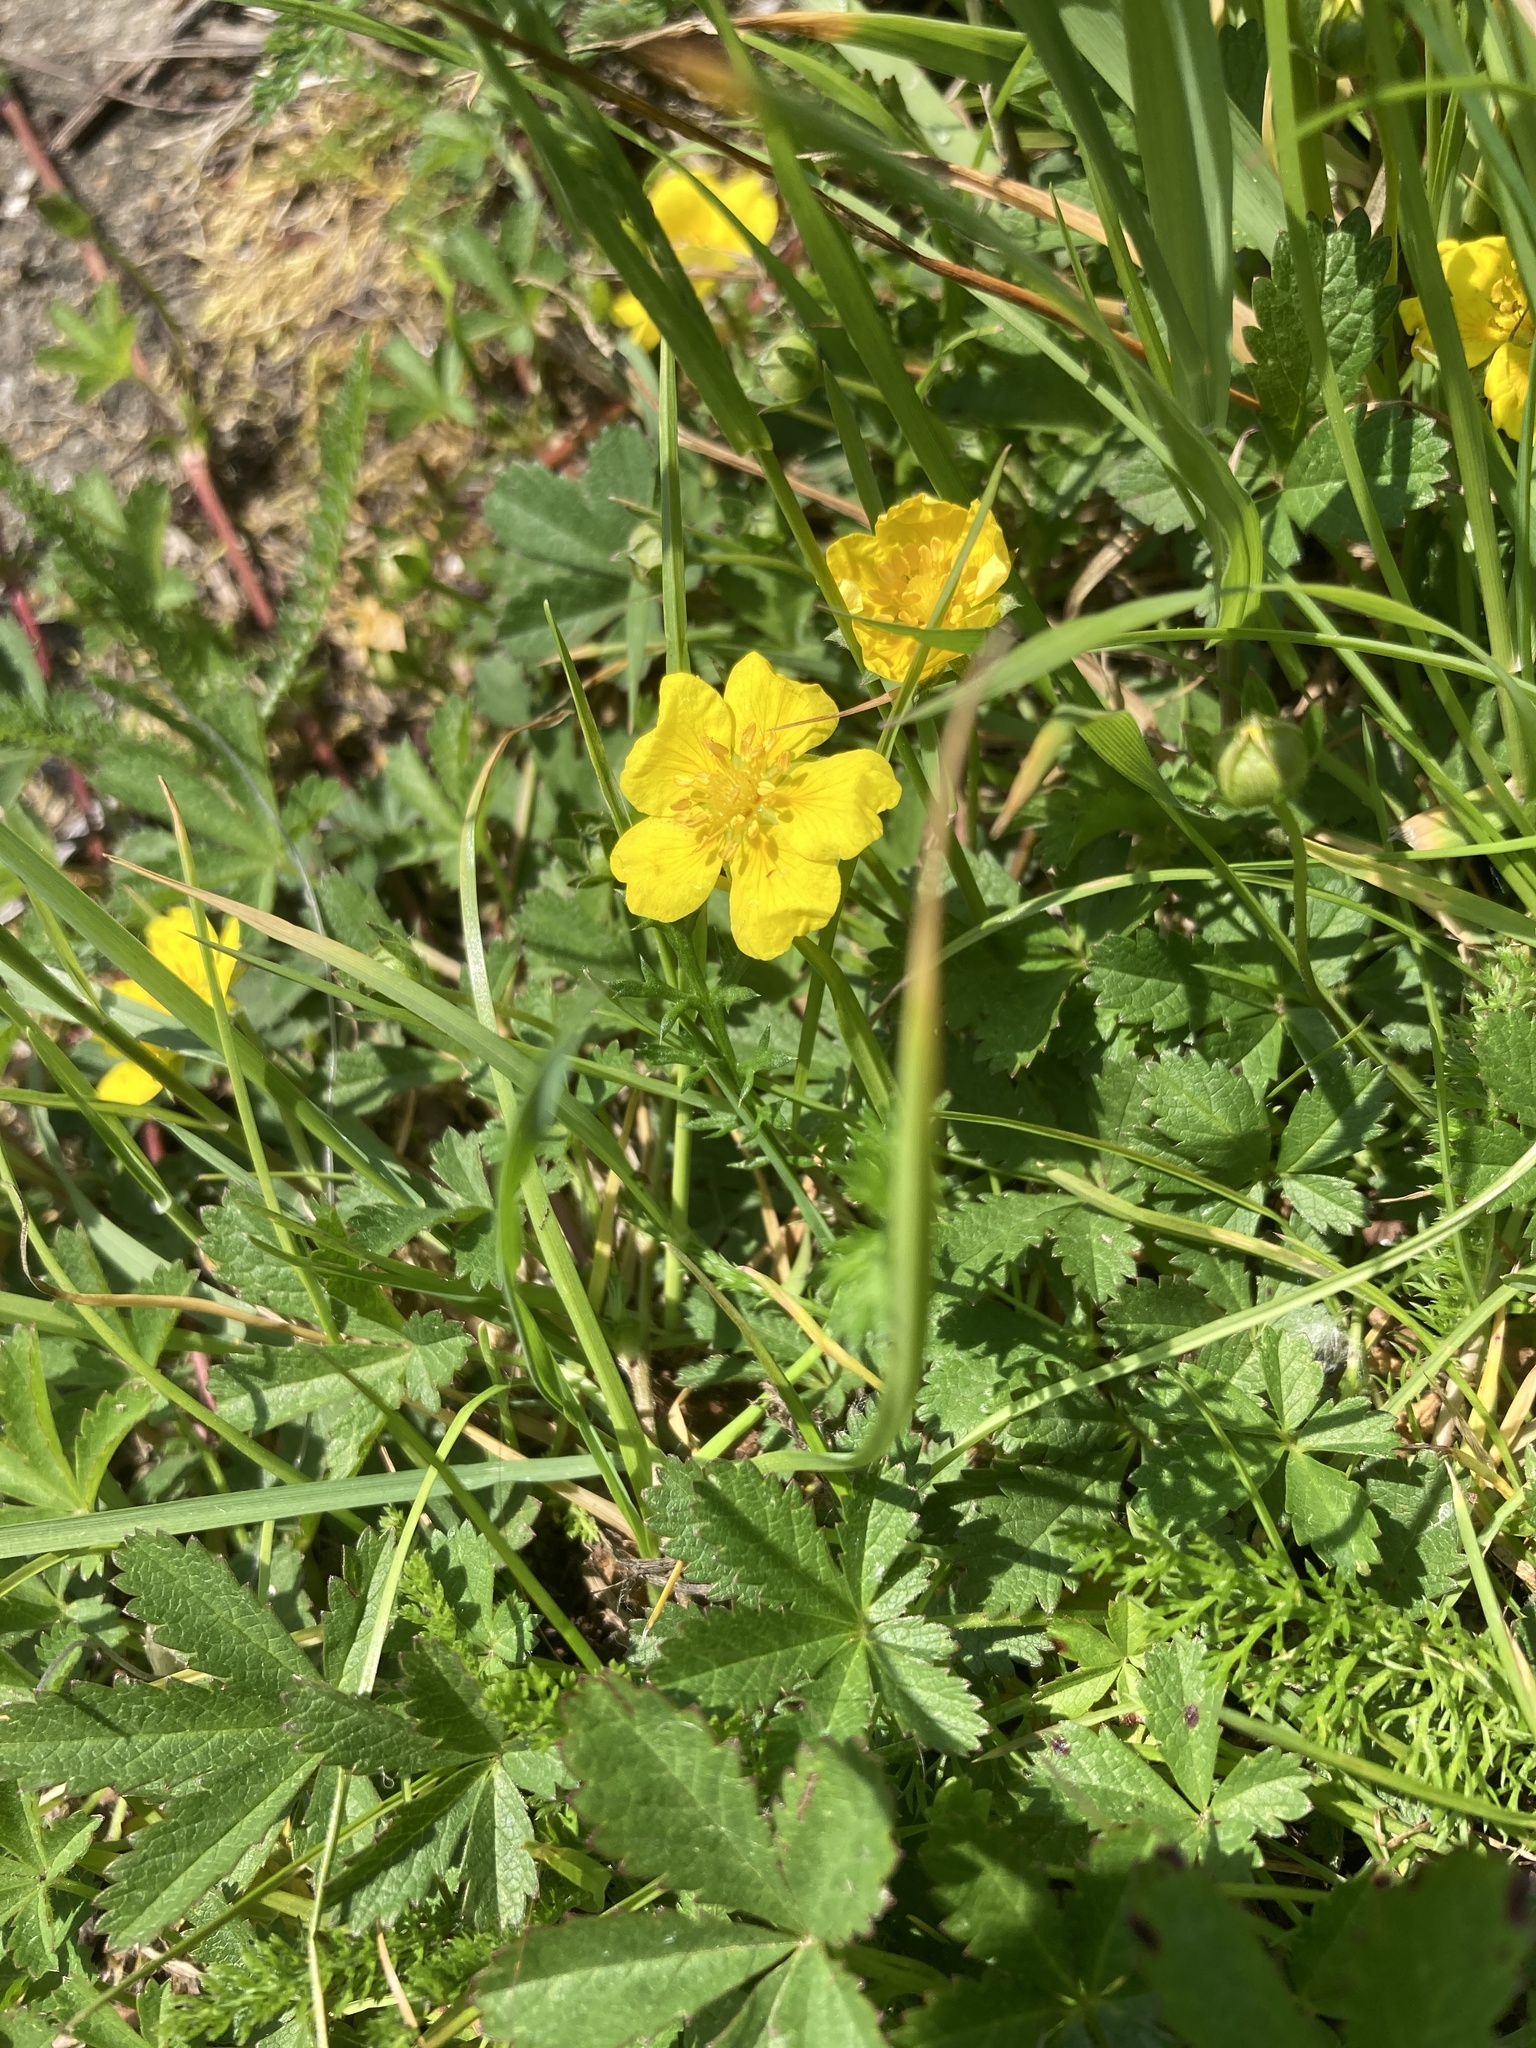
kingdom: Plantae
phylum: Tracheophyta
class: Magnoliopsida
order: Rosales
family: Rosaceae
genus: Argentina
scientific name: Argentina anserina
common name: Common silverweed
